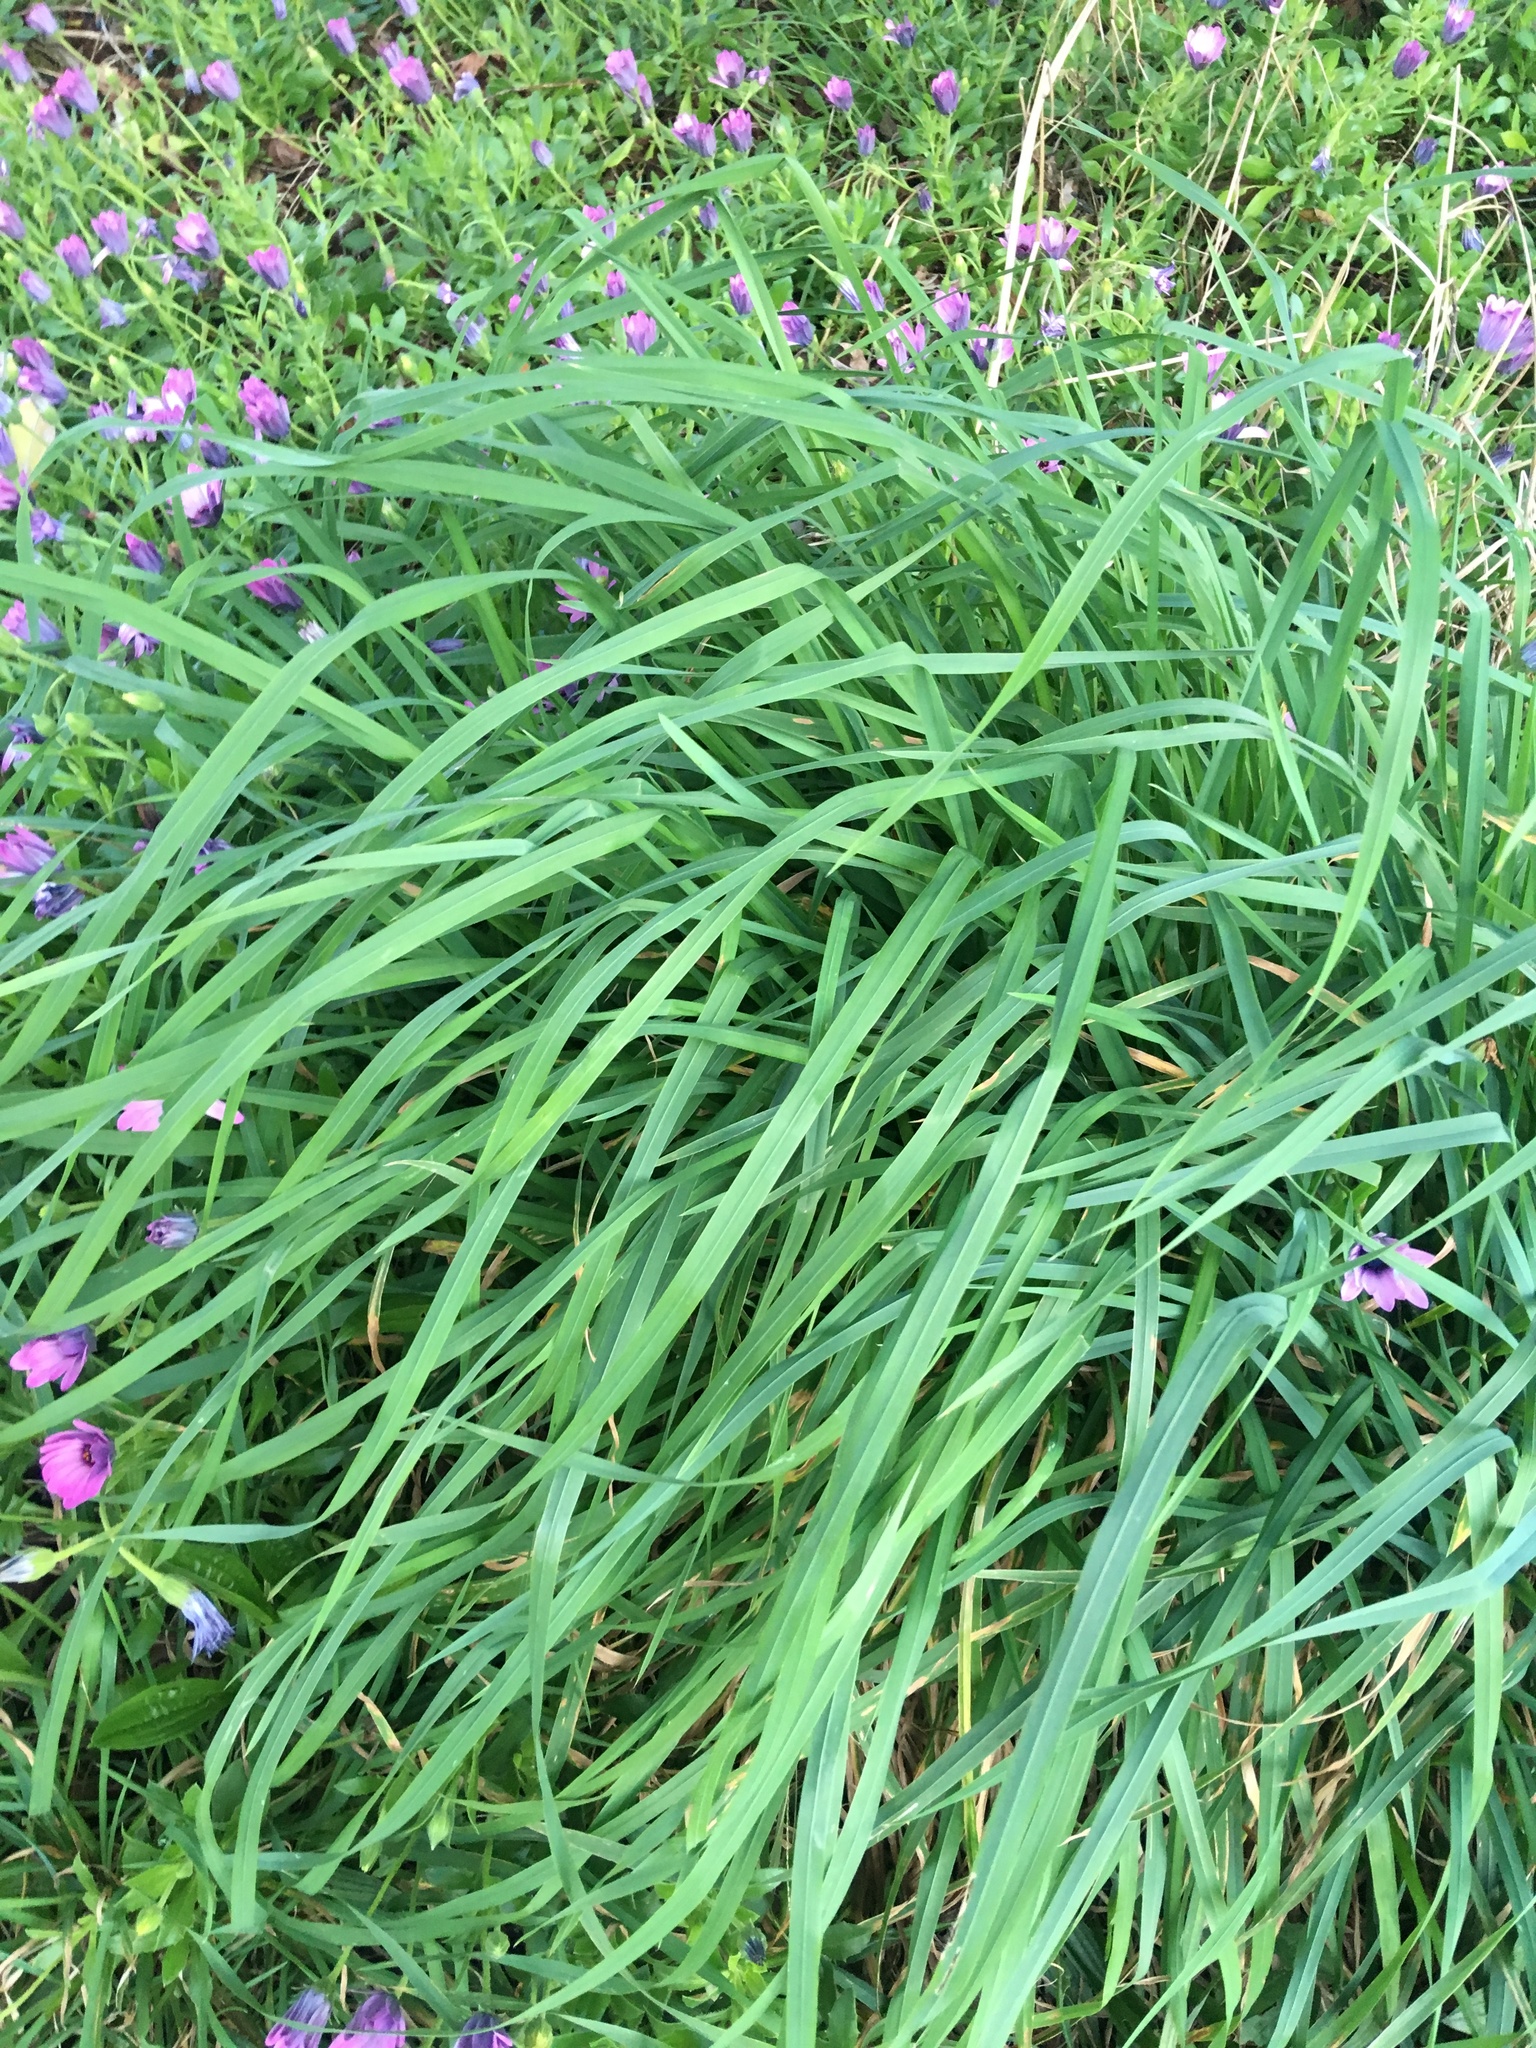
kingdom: Plantae
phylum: Tracheophyta
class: Liliopsida
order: Poales
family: Poaceae
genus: Holcus
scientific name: Holcus lanatus
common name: Yorkshire-fog
